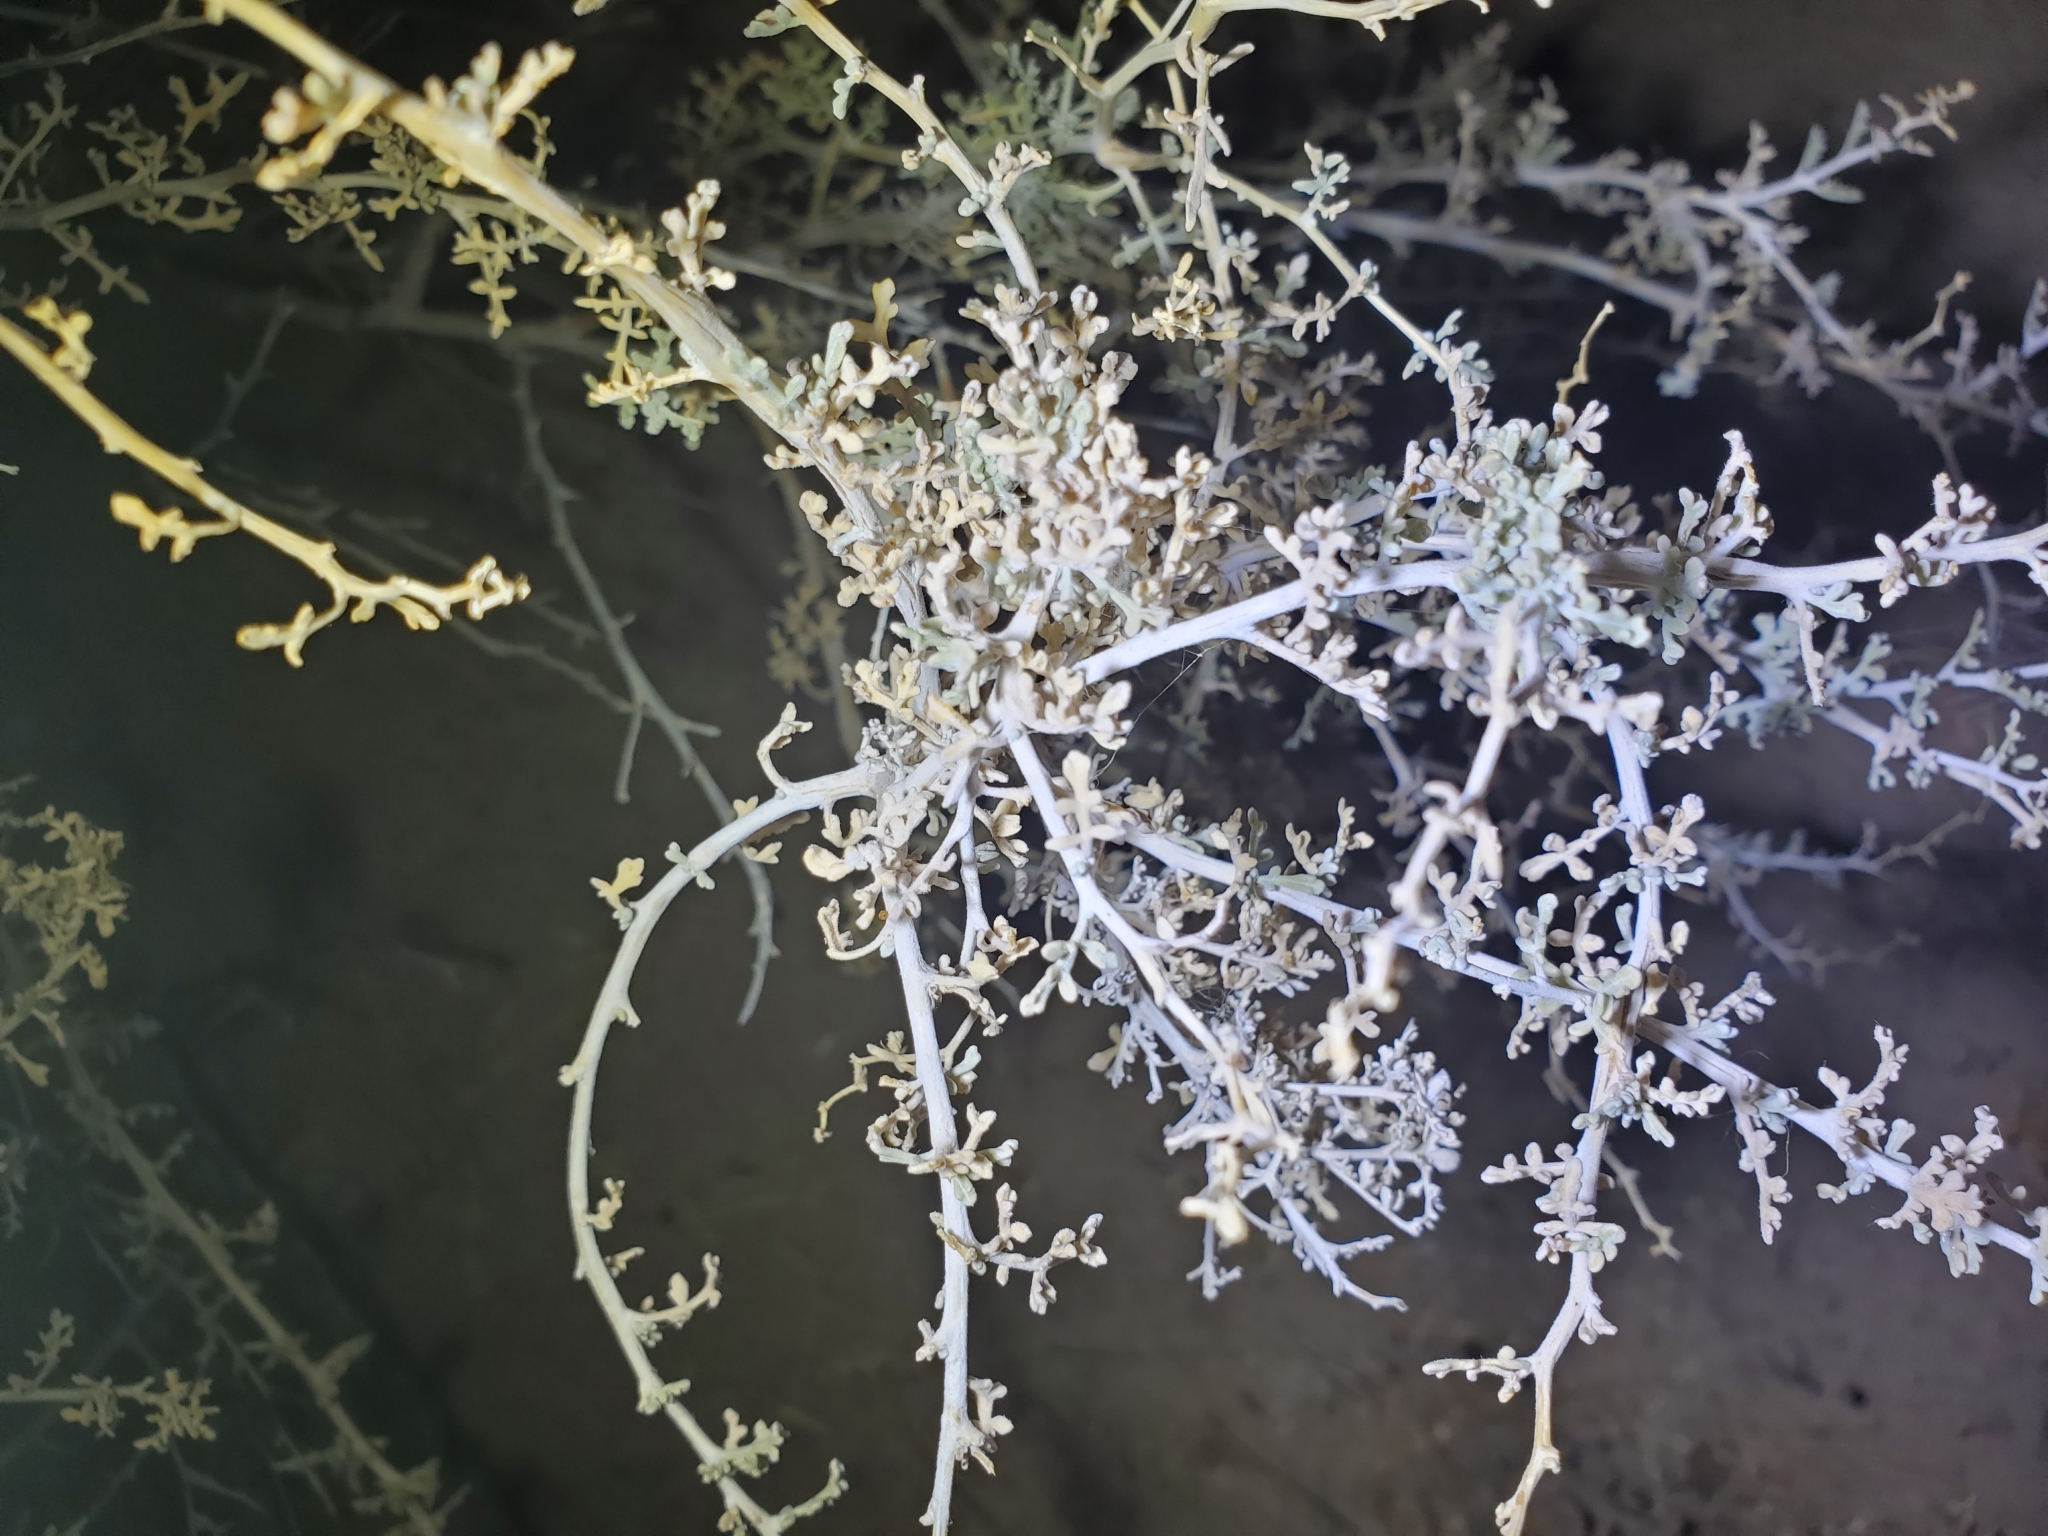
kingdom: Plantae
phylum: Tracheophyta
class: Magnoliopsida
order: Asterales
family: Asteraceae
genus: Ambrosia
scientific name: Ambrosia dumosa
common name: Bur-sage
